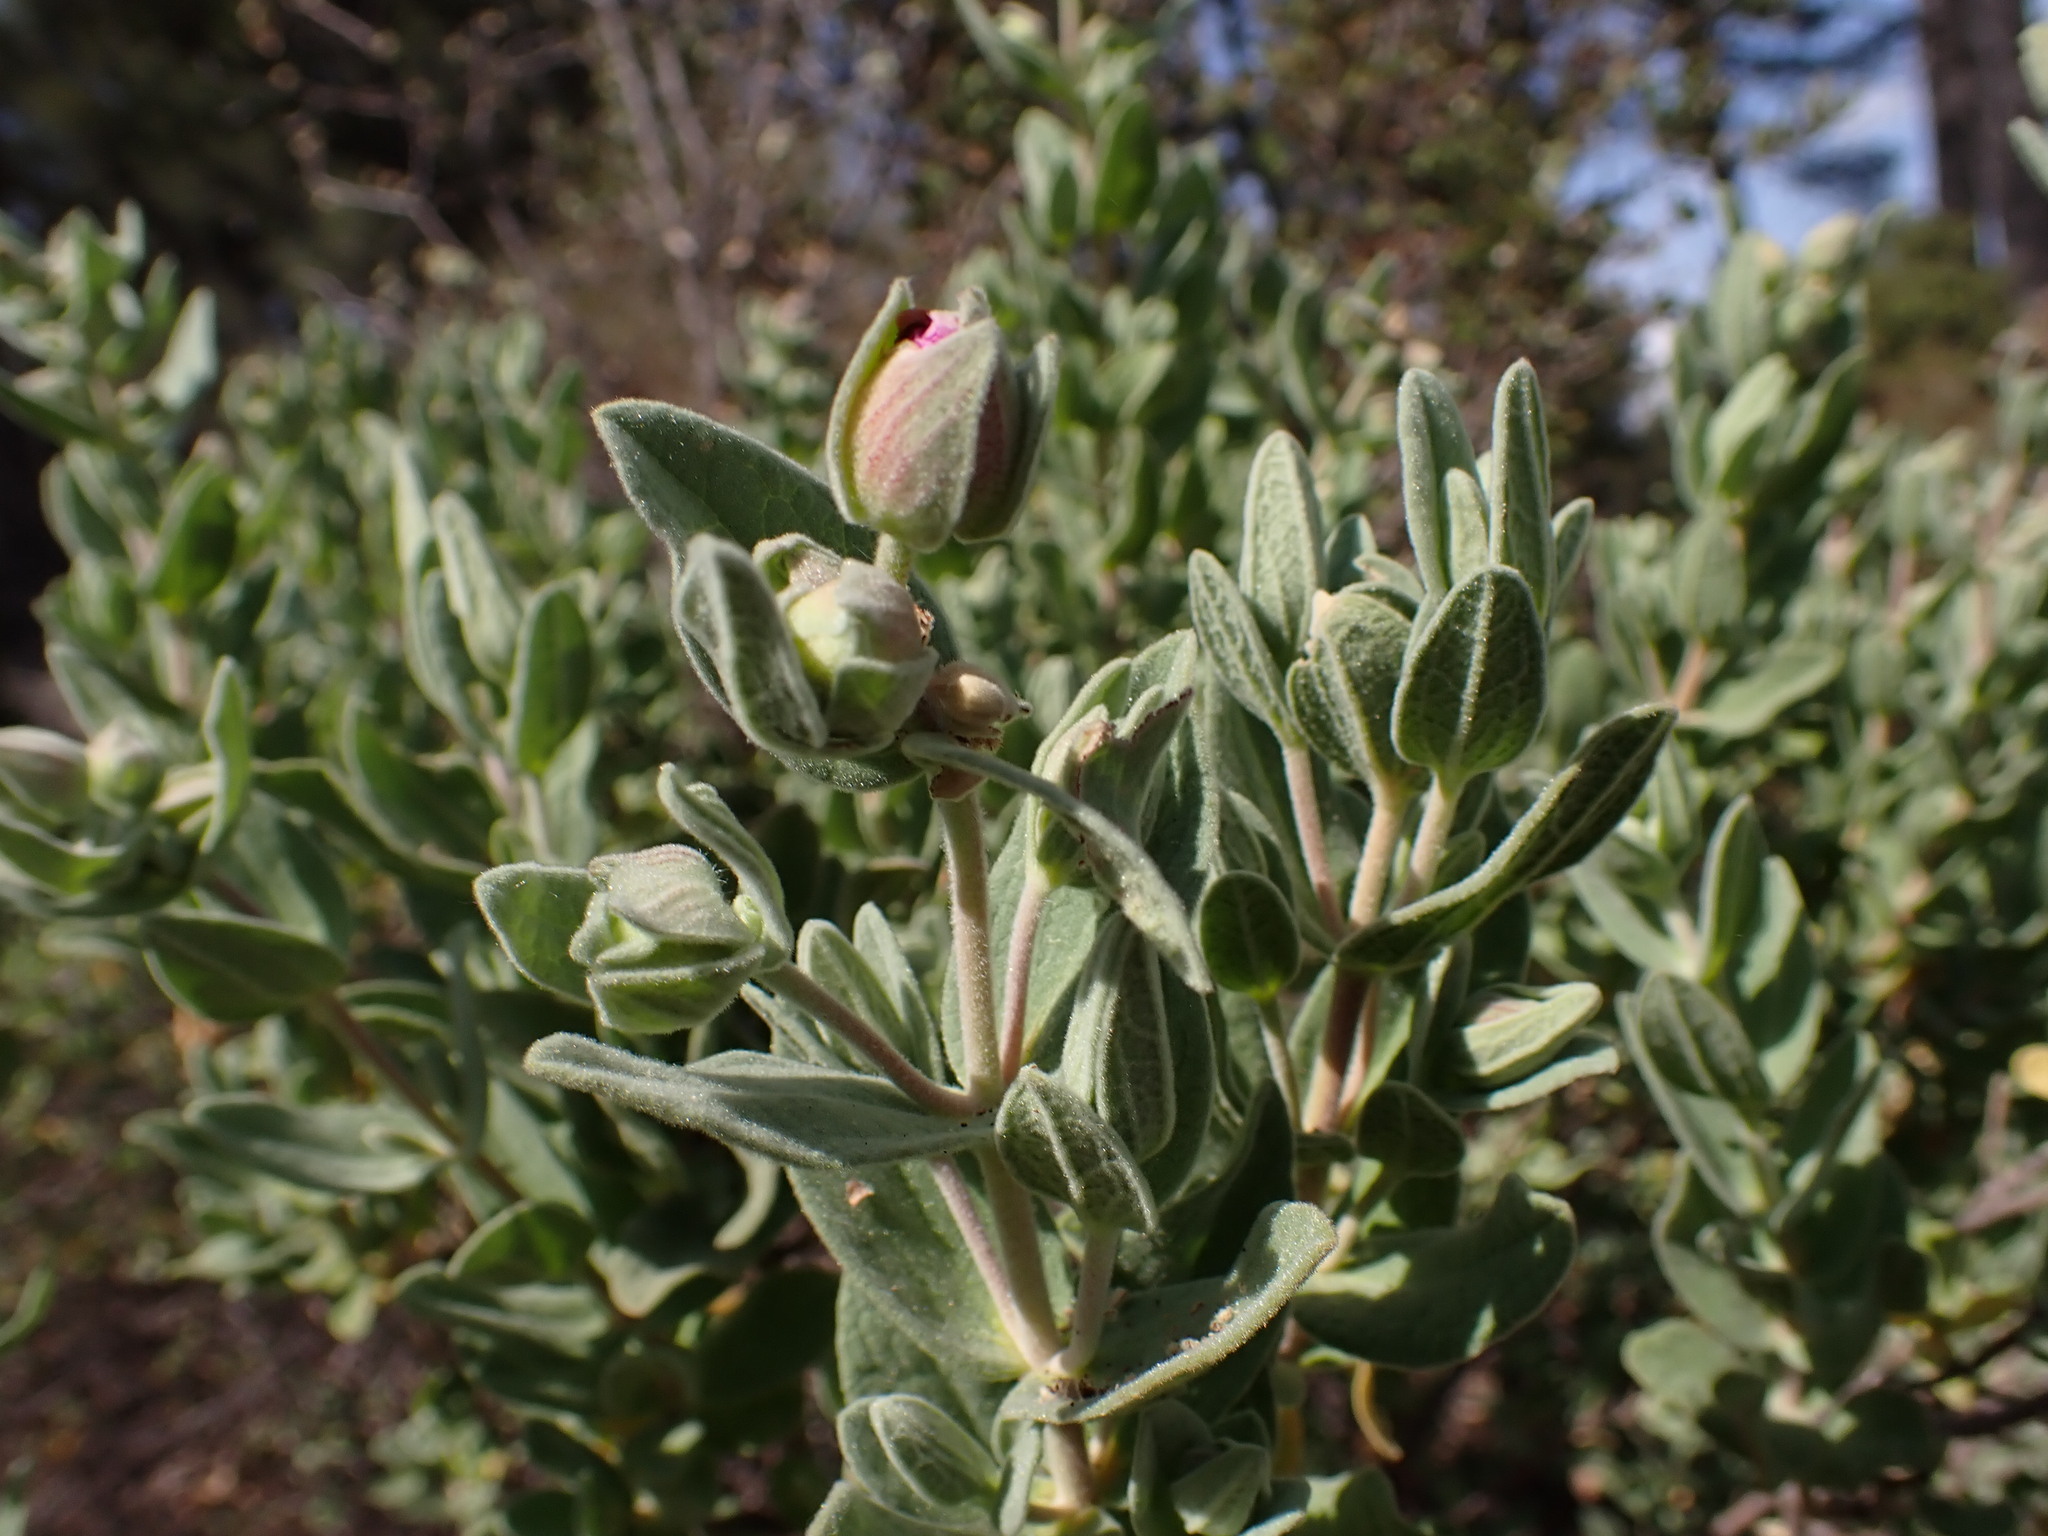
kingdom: Plantae
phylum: Tracheophyta
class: Magnoliopsida
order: Malvales
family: Cistaceae
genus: Cistus
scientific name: Cistus albidus
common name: White-leaf rock-rose
